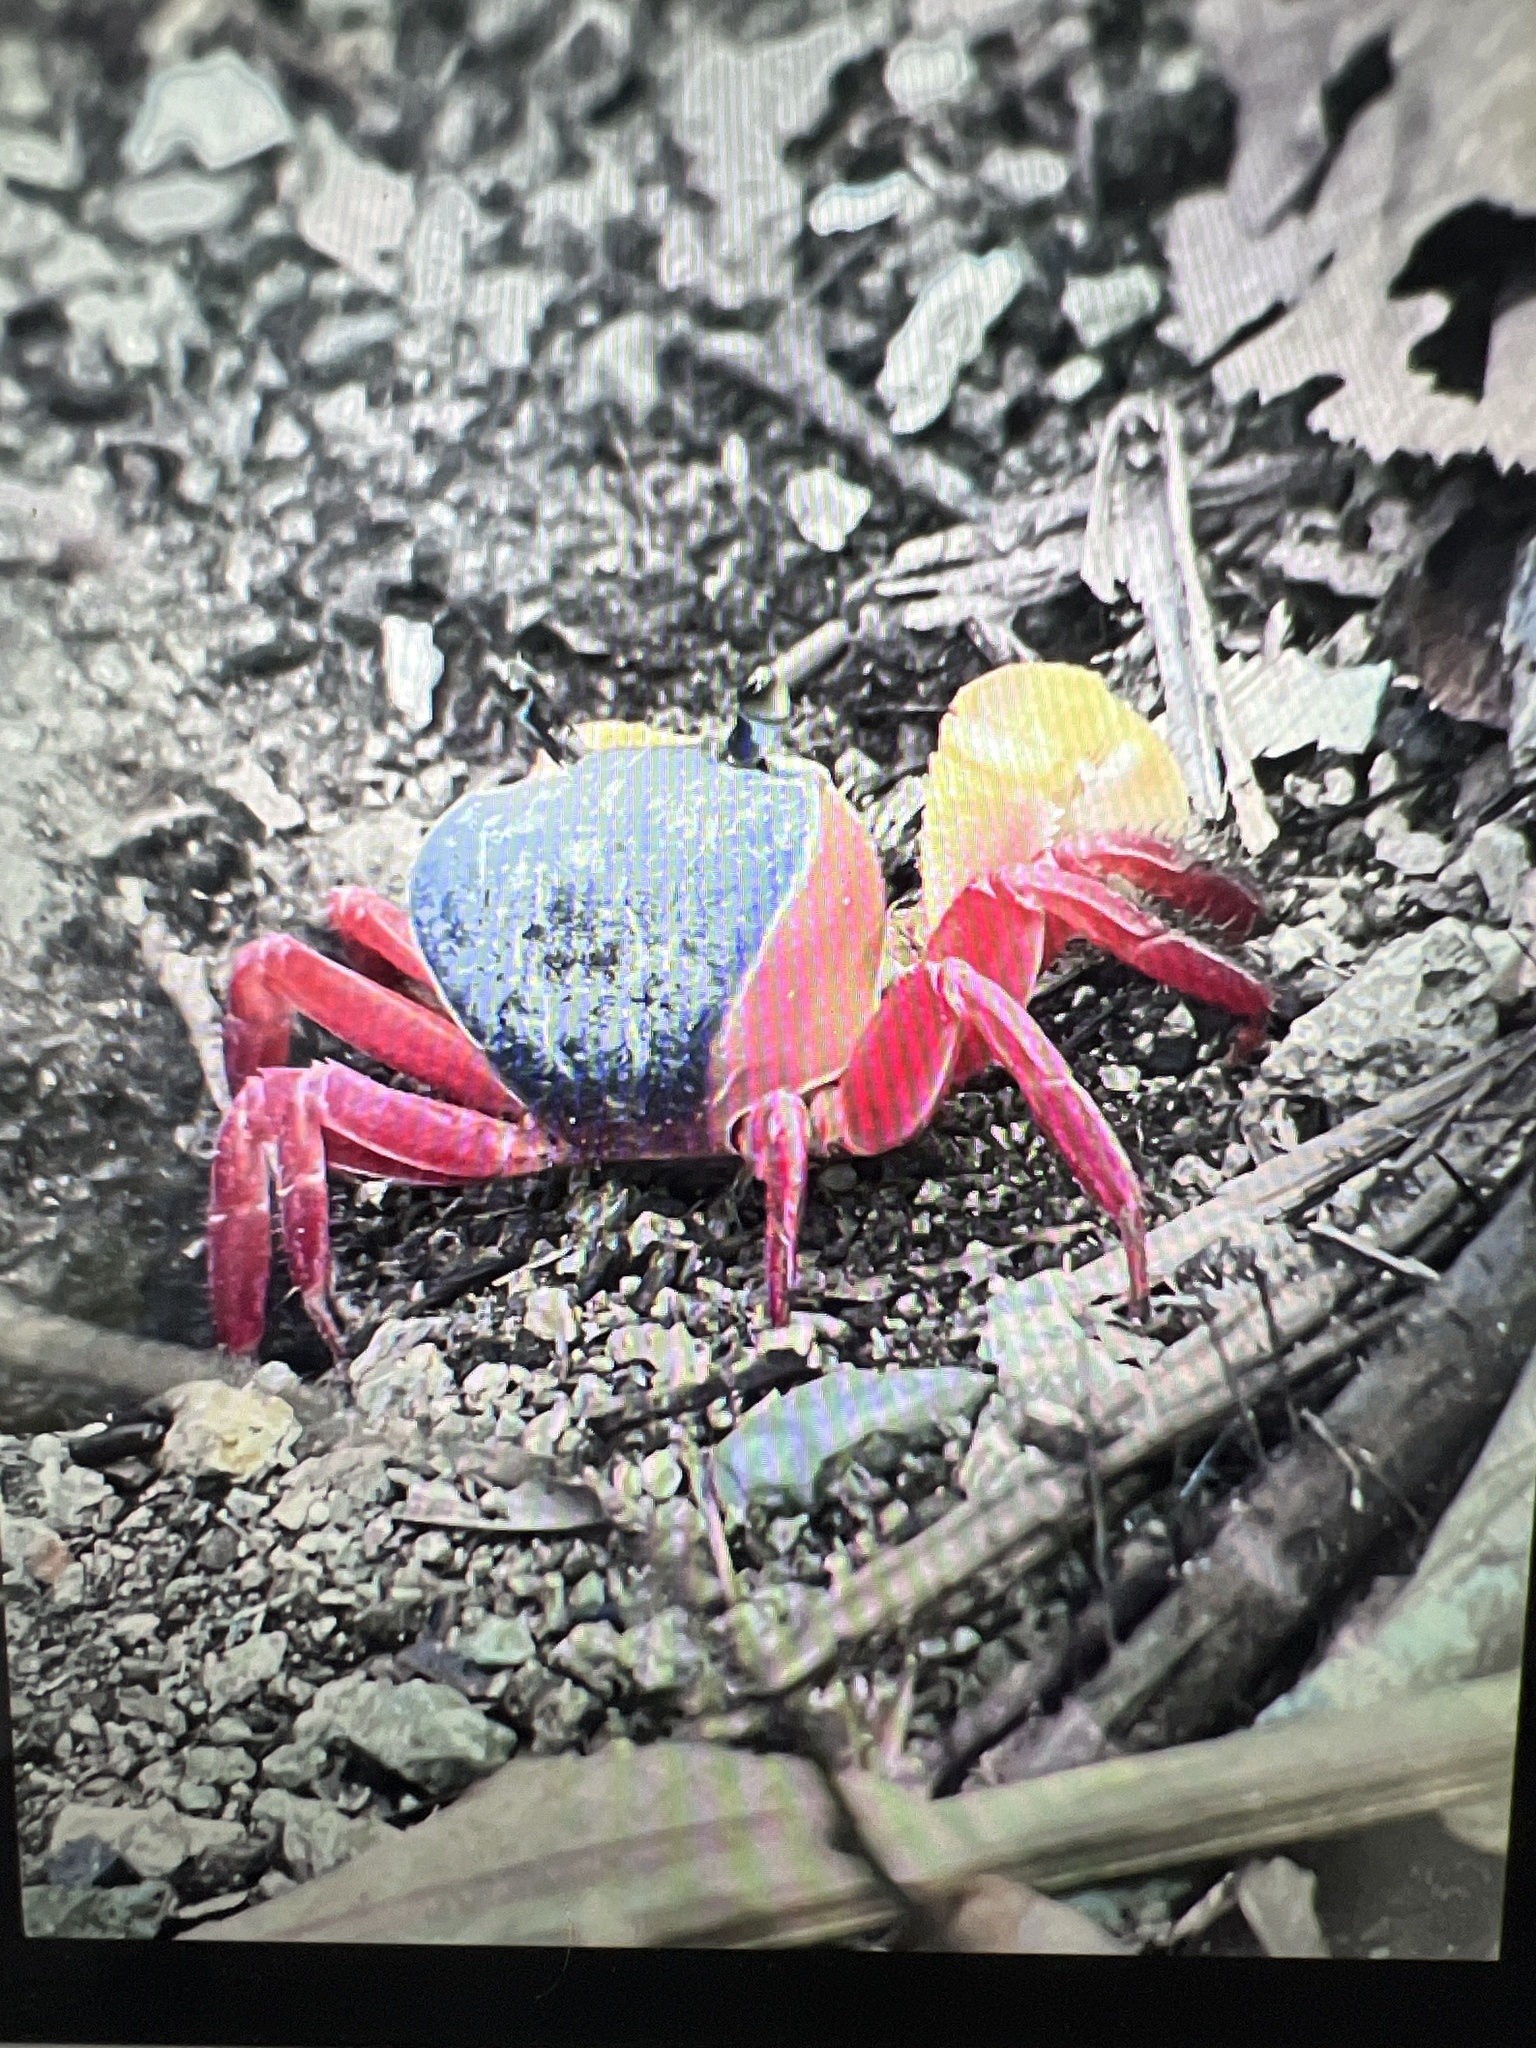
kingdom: Animalia
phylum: Arthropoda
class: Malacostraca
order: Decapoda
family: Gecarcinidae
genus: Cardisoma
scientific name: Cardisoma crassum
